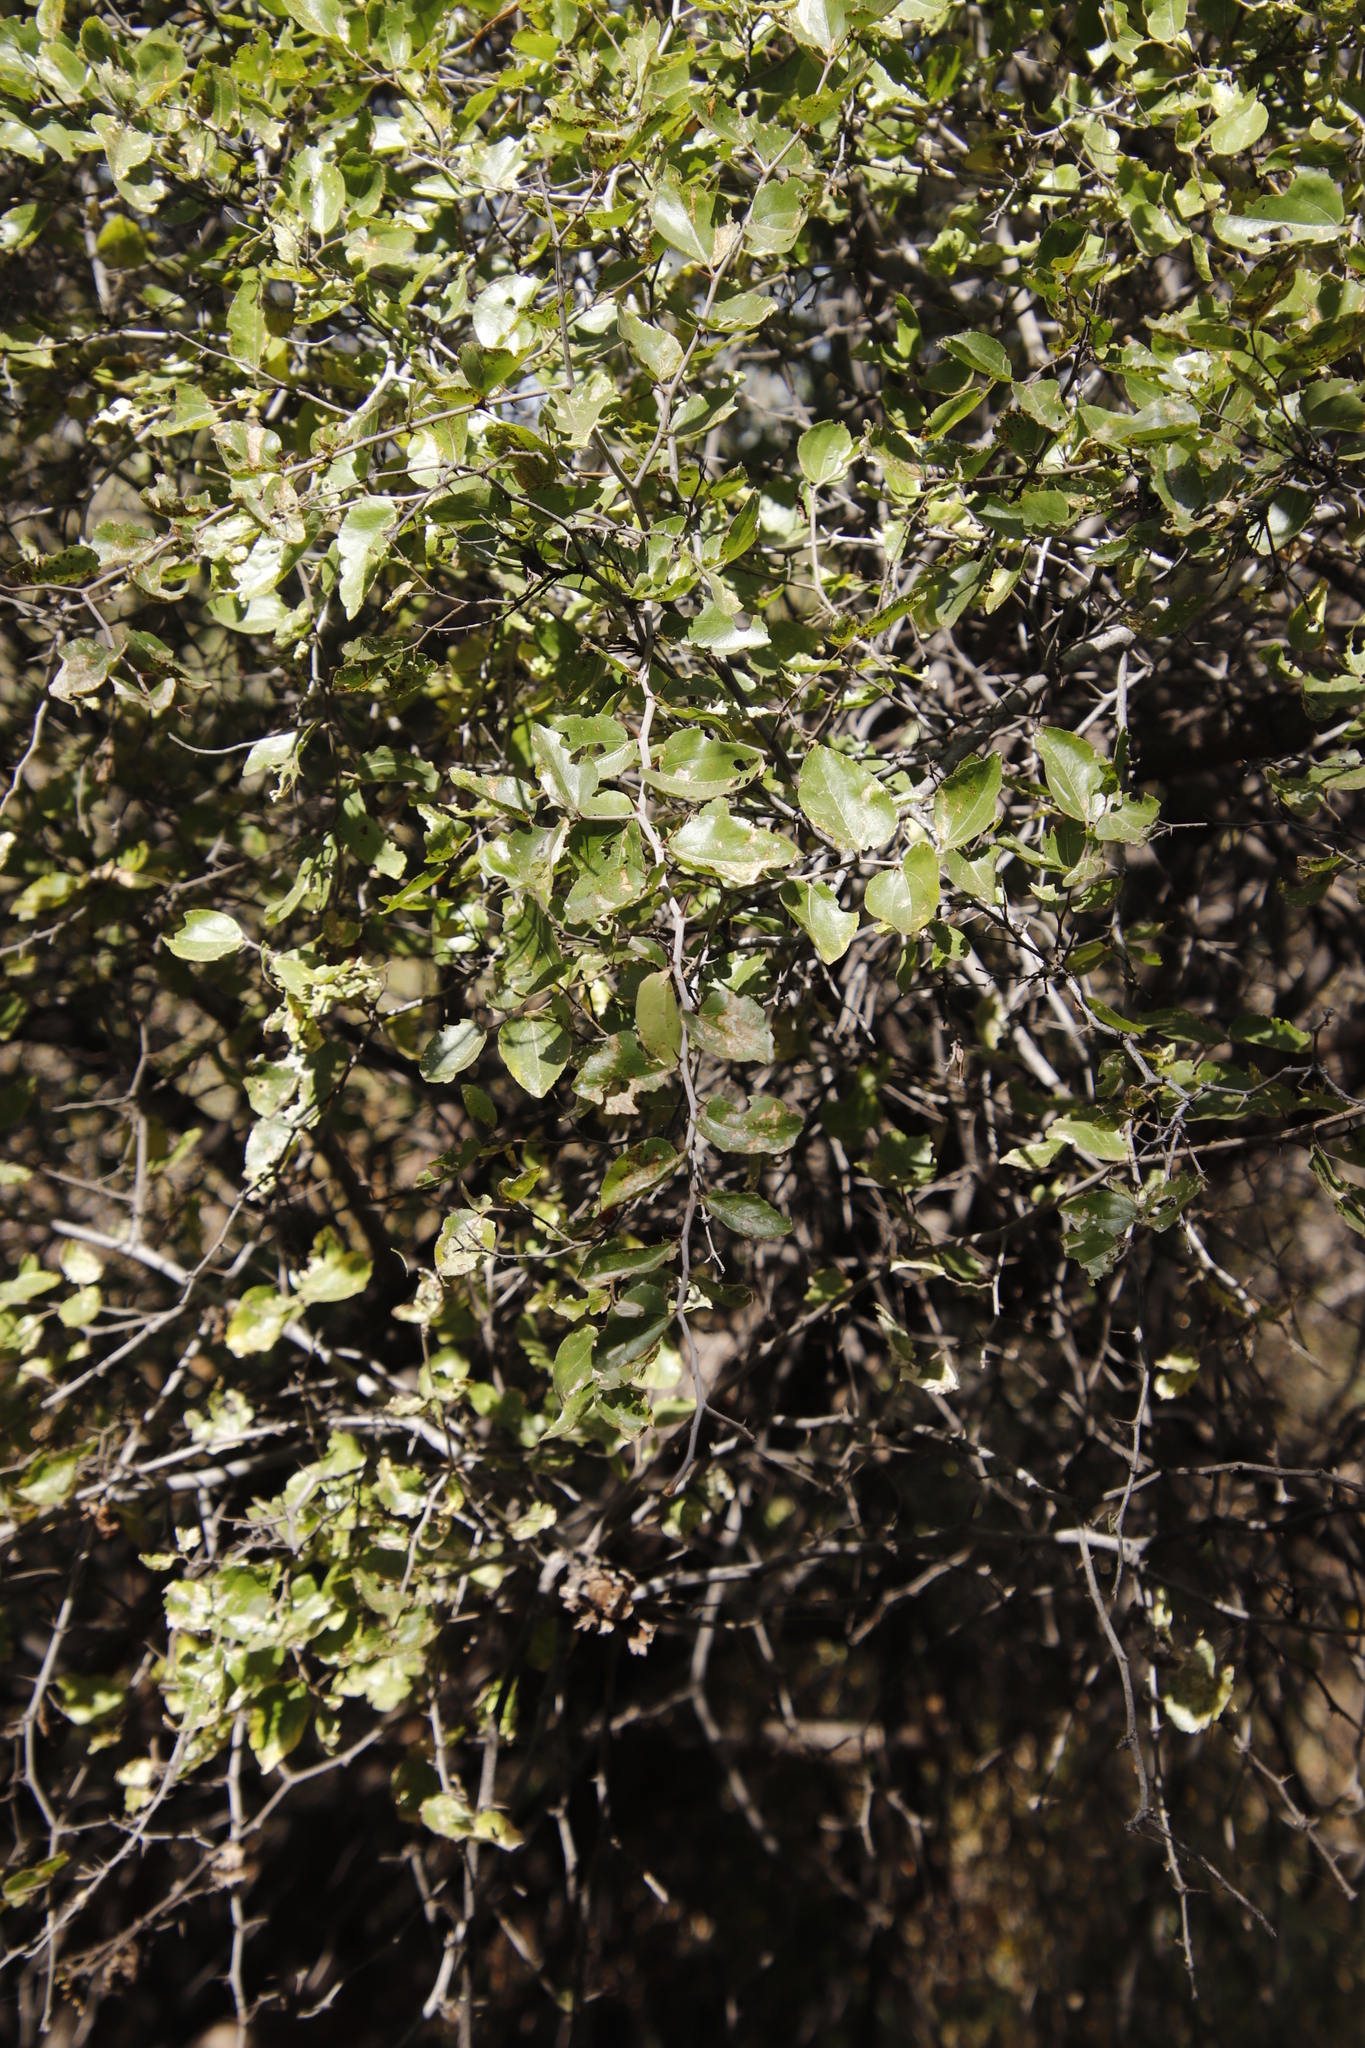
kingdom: Plantae
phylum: Tracheophyta
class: Magnoliopsida
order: Rosales
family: Rhamnaceae
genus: Ziziphus
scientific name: Ziziphus mucronata
